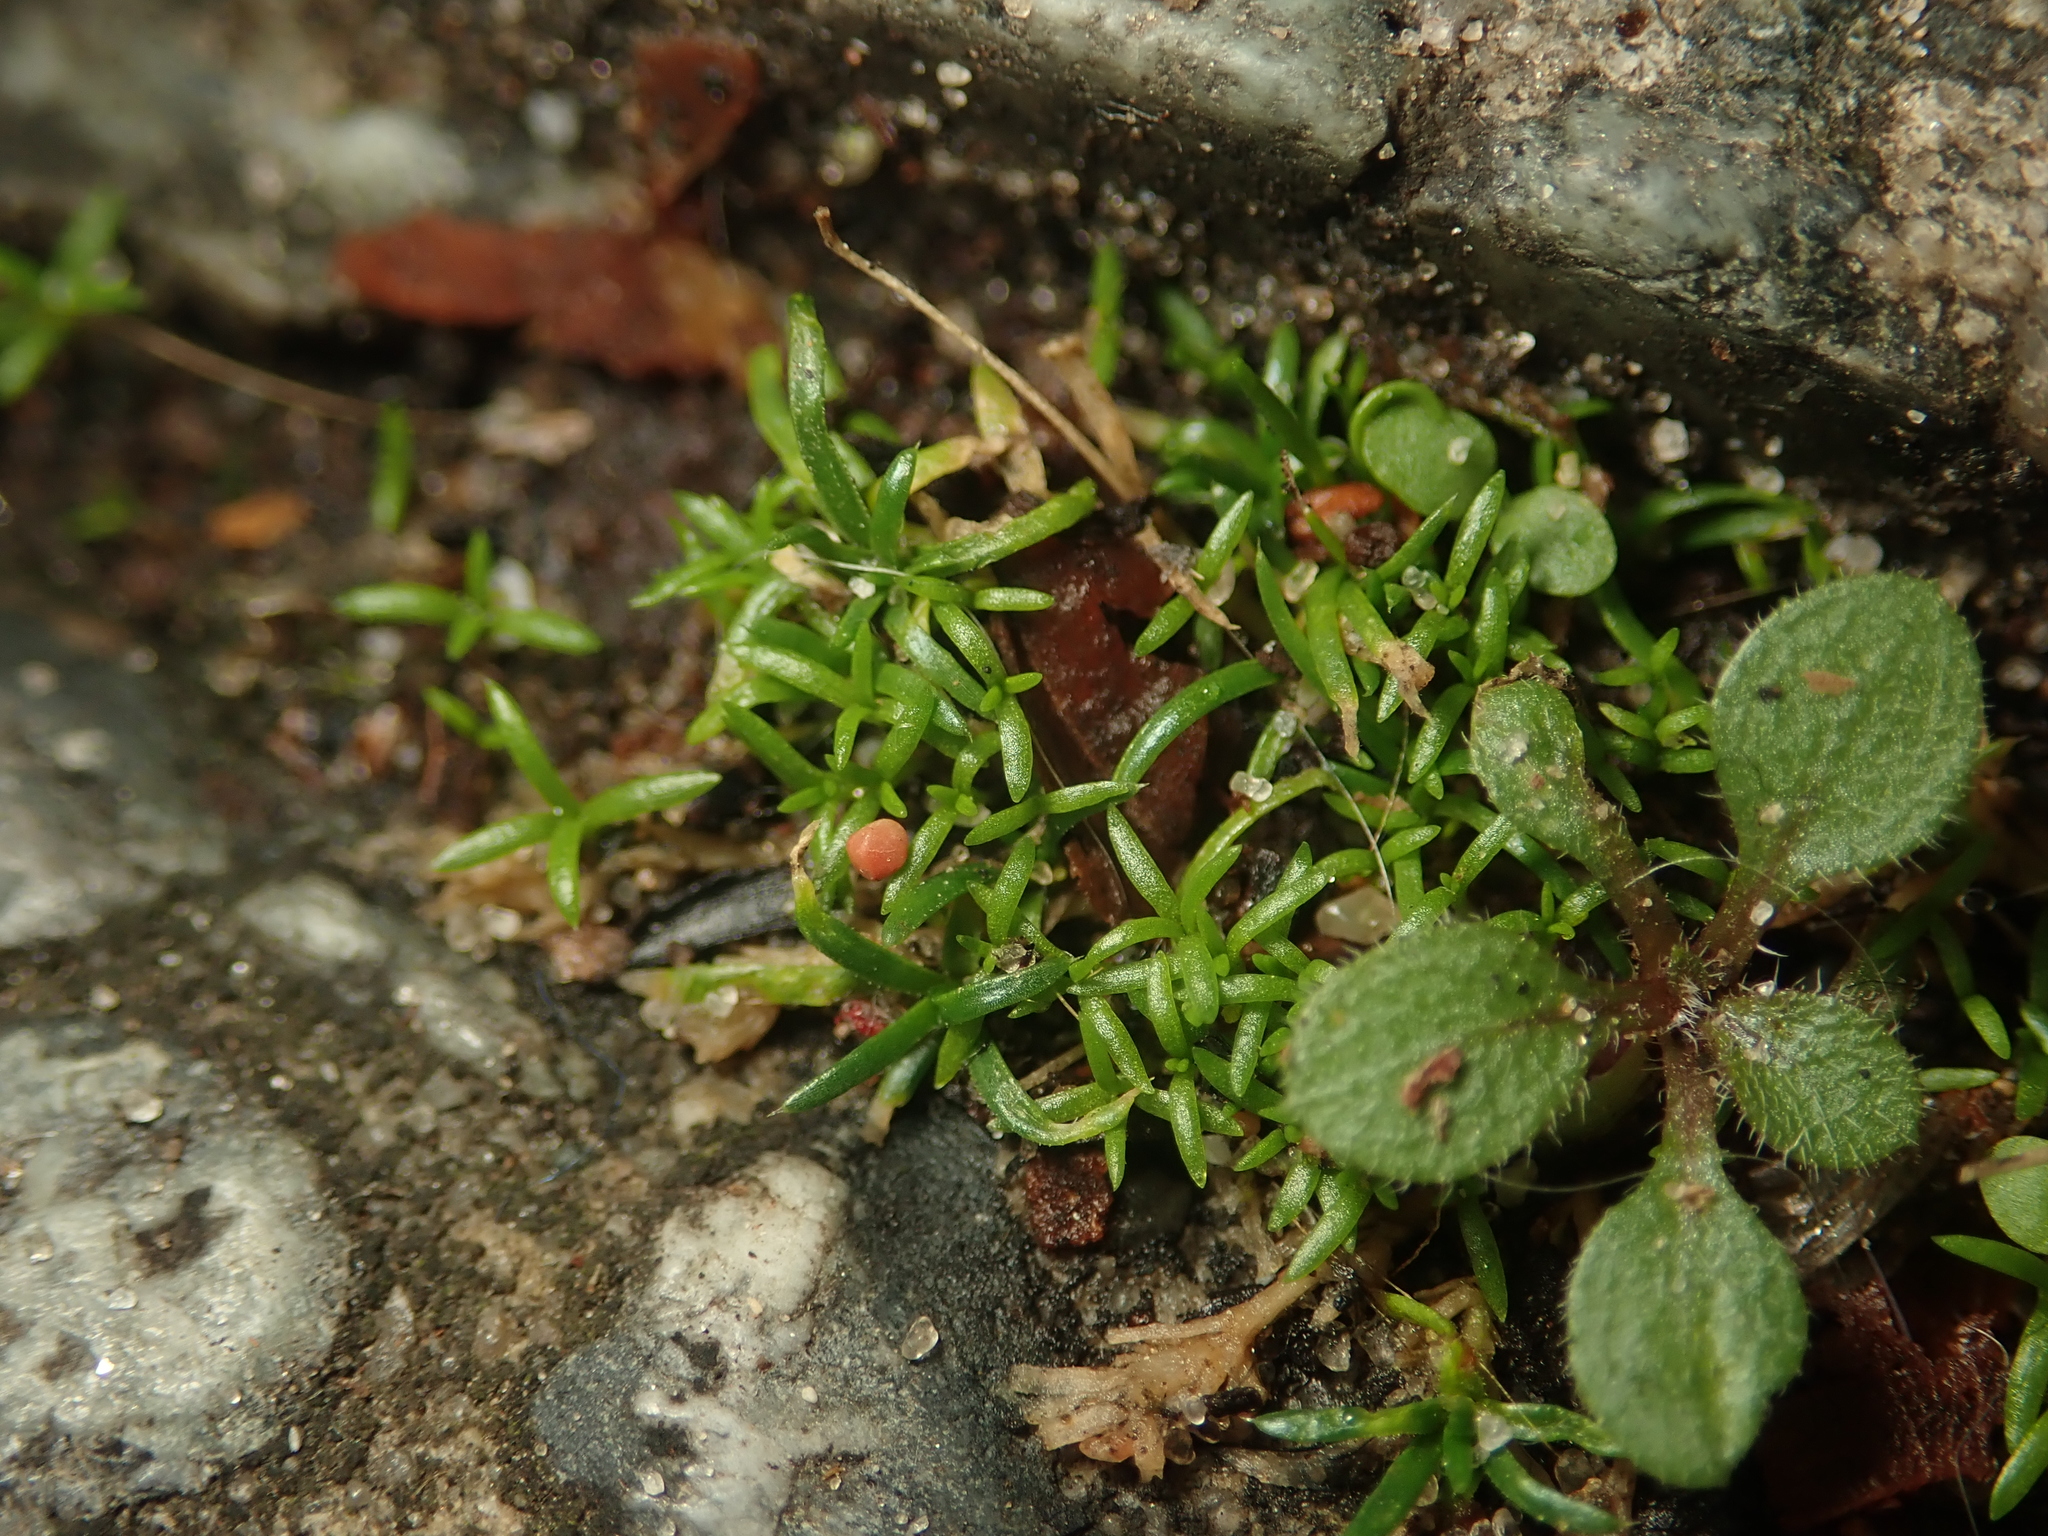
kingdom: Plantae
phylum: Tracheophyta
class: Magnoliopsida
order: Caryophyllales
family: Caryophyllaceae
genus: Sagina
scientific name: Sagina procumbens
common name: Procumbent pearlwort
